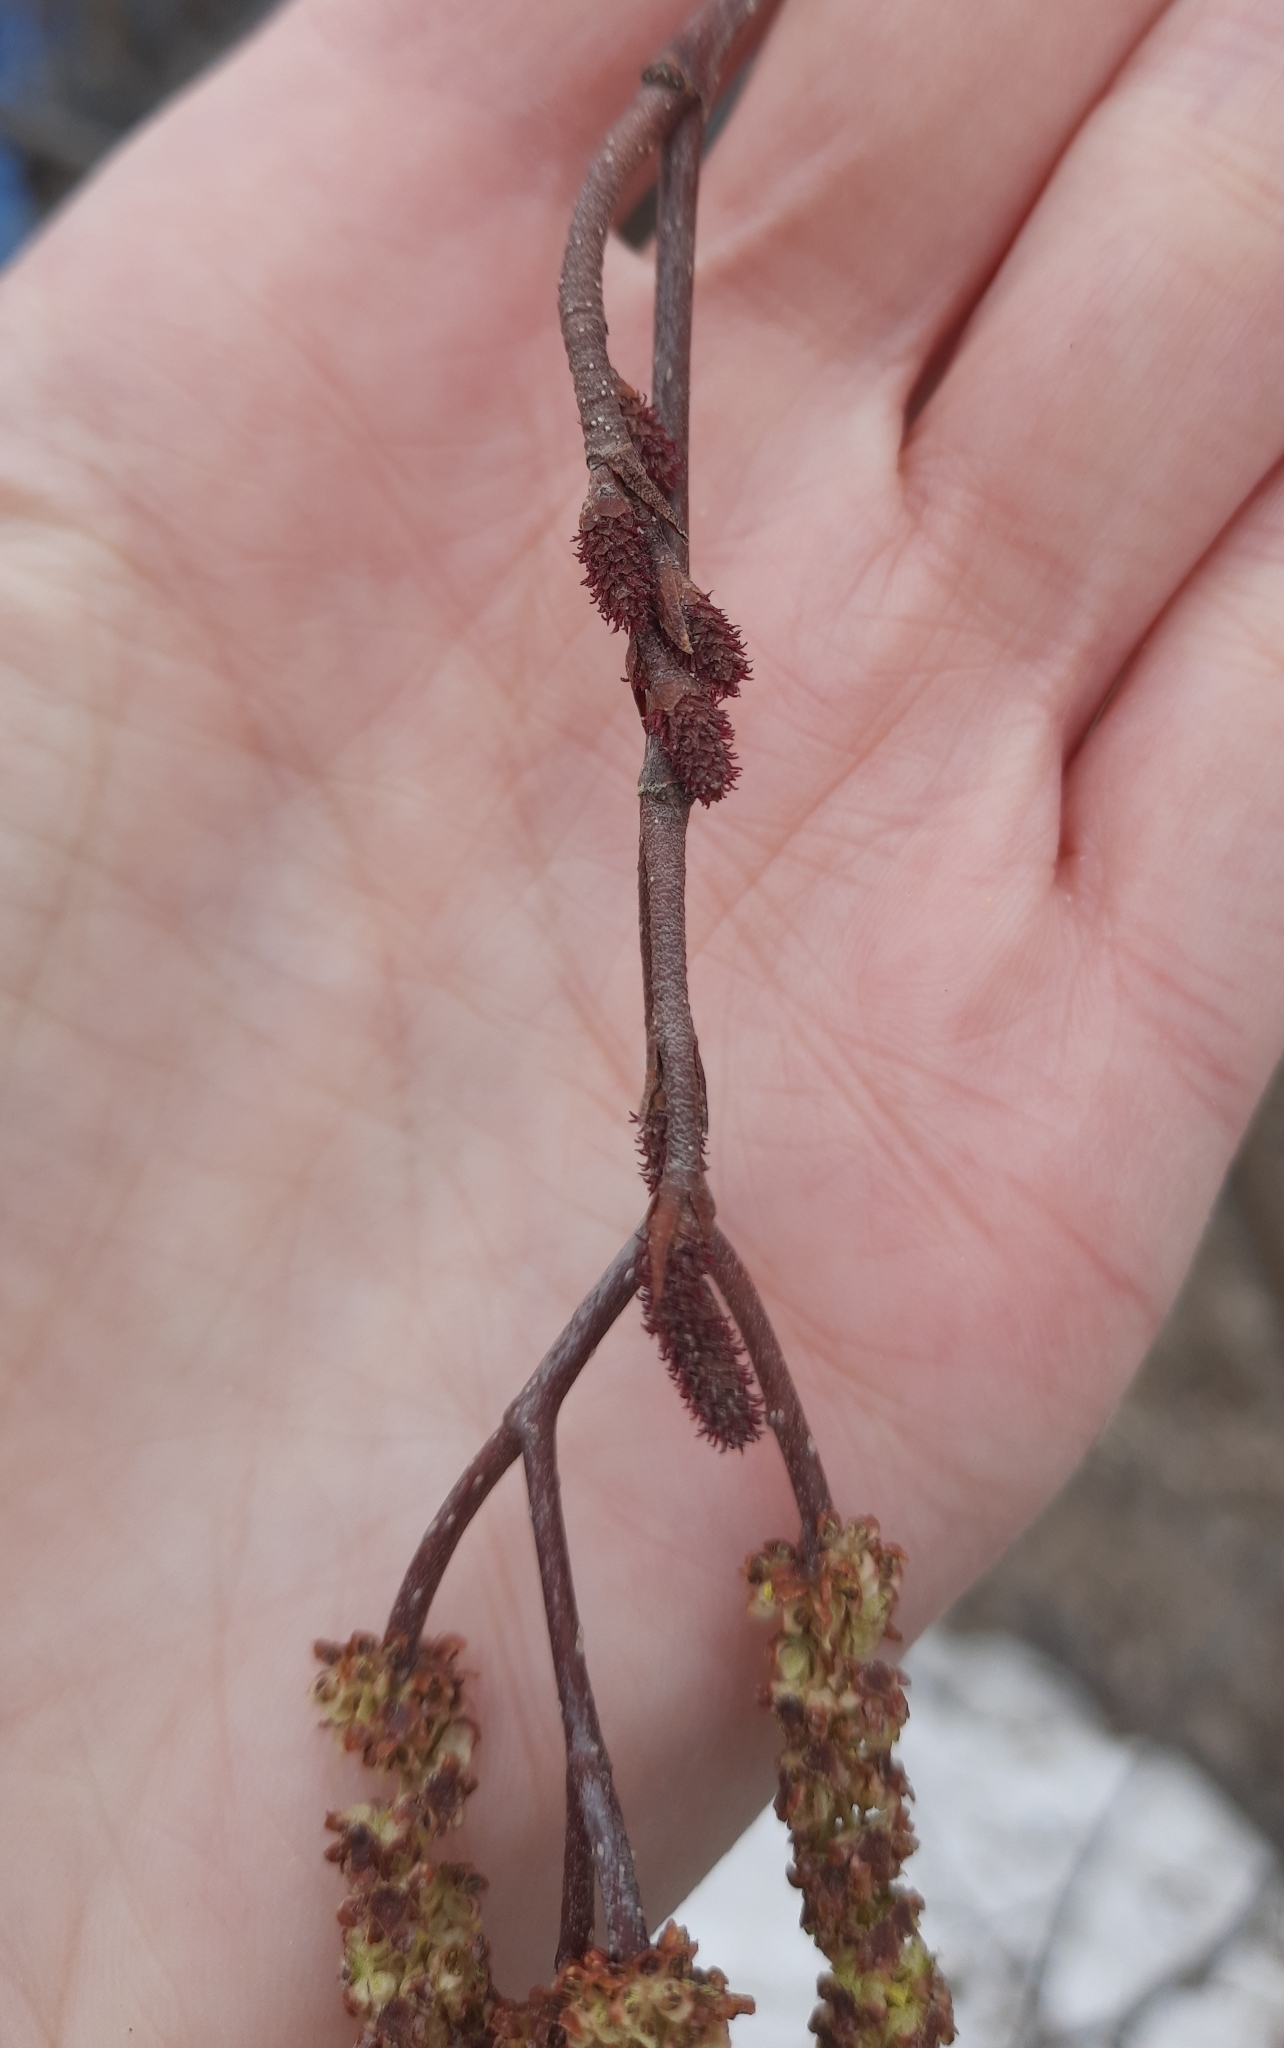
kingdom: Plantae
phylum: Tracheophyta
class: Magnoliopsida
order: Fagales
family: Betulaceae
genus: Alnus
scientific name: Alnus alnobetula
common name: Green alder
